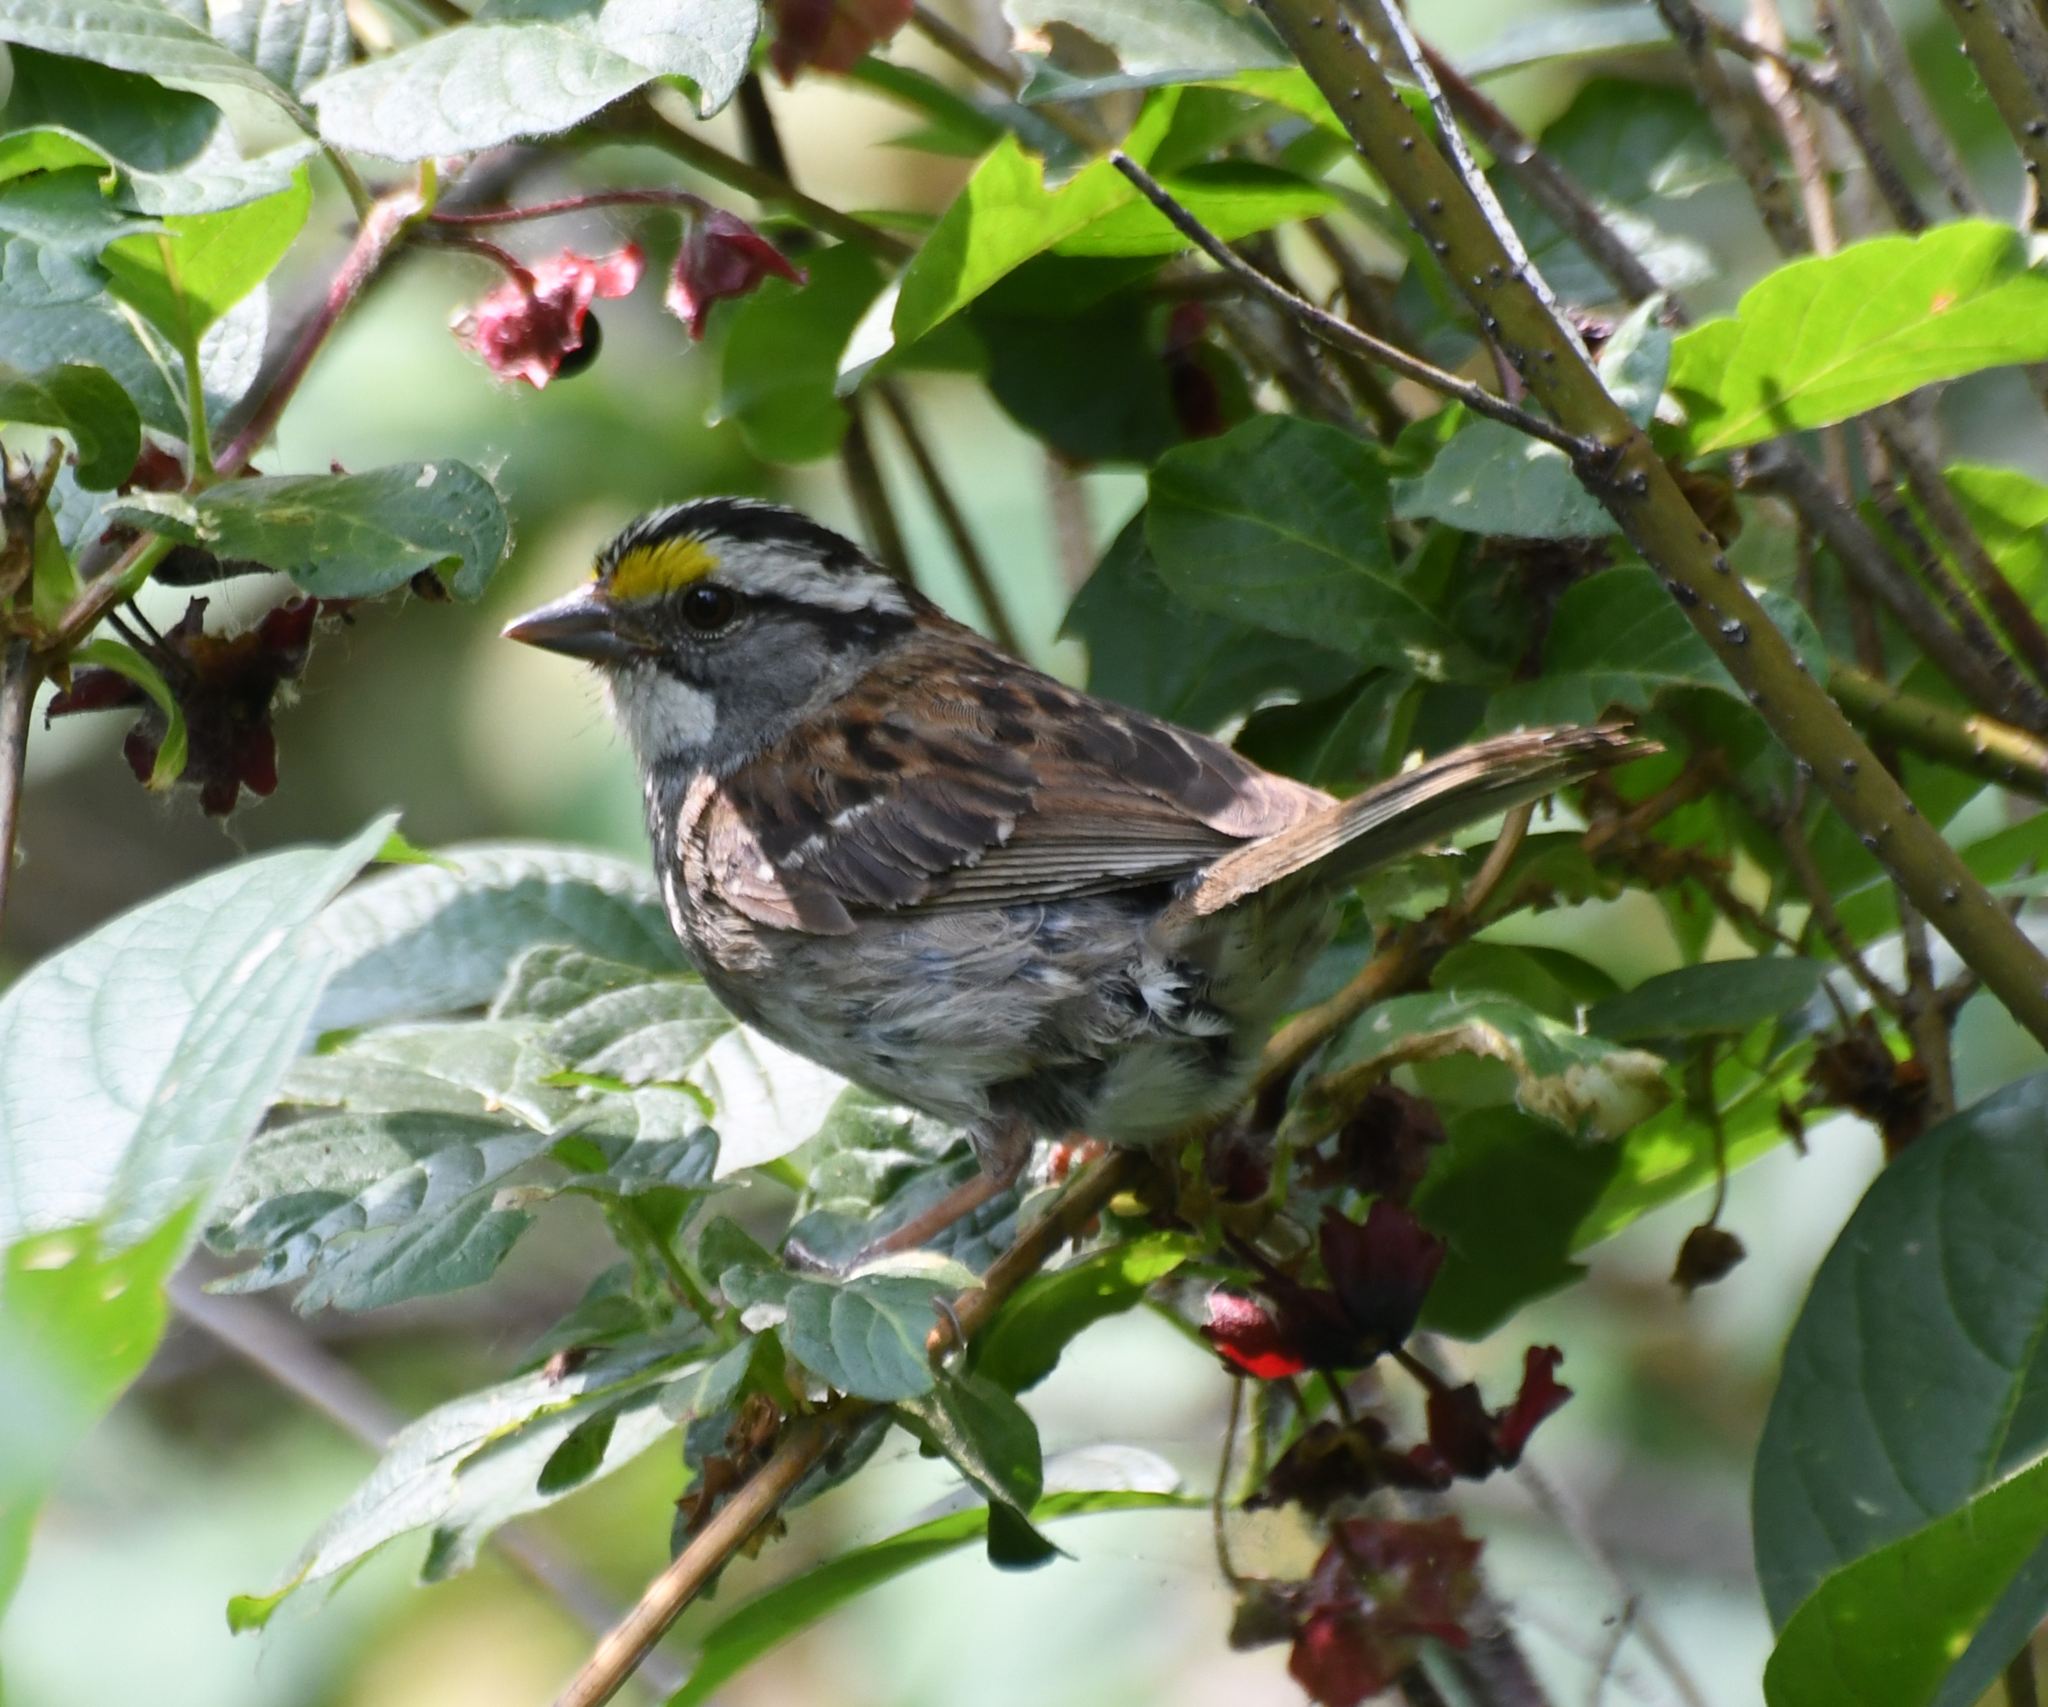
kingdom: Animalia
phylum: Chordata
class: Aves
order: Passeriformes
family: Passerellidae
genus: Zonotrichia
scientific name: Zonotrichia albicollis
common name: White-throated sparrow
